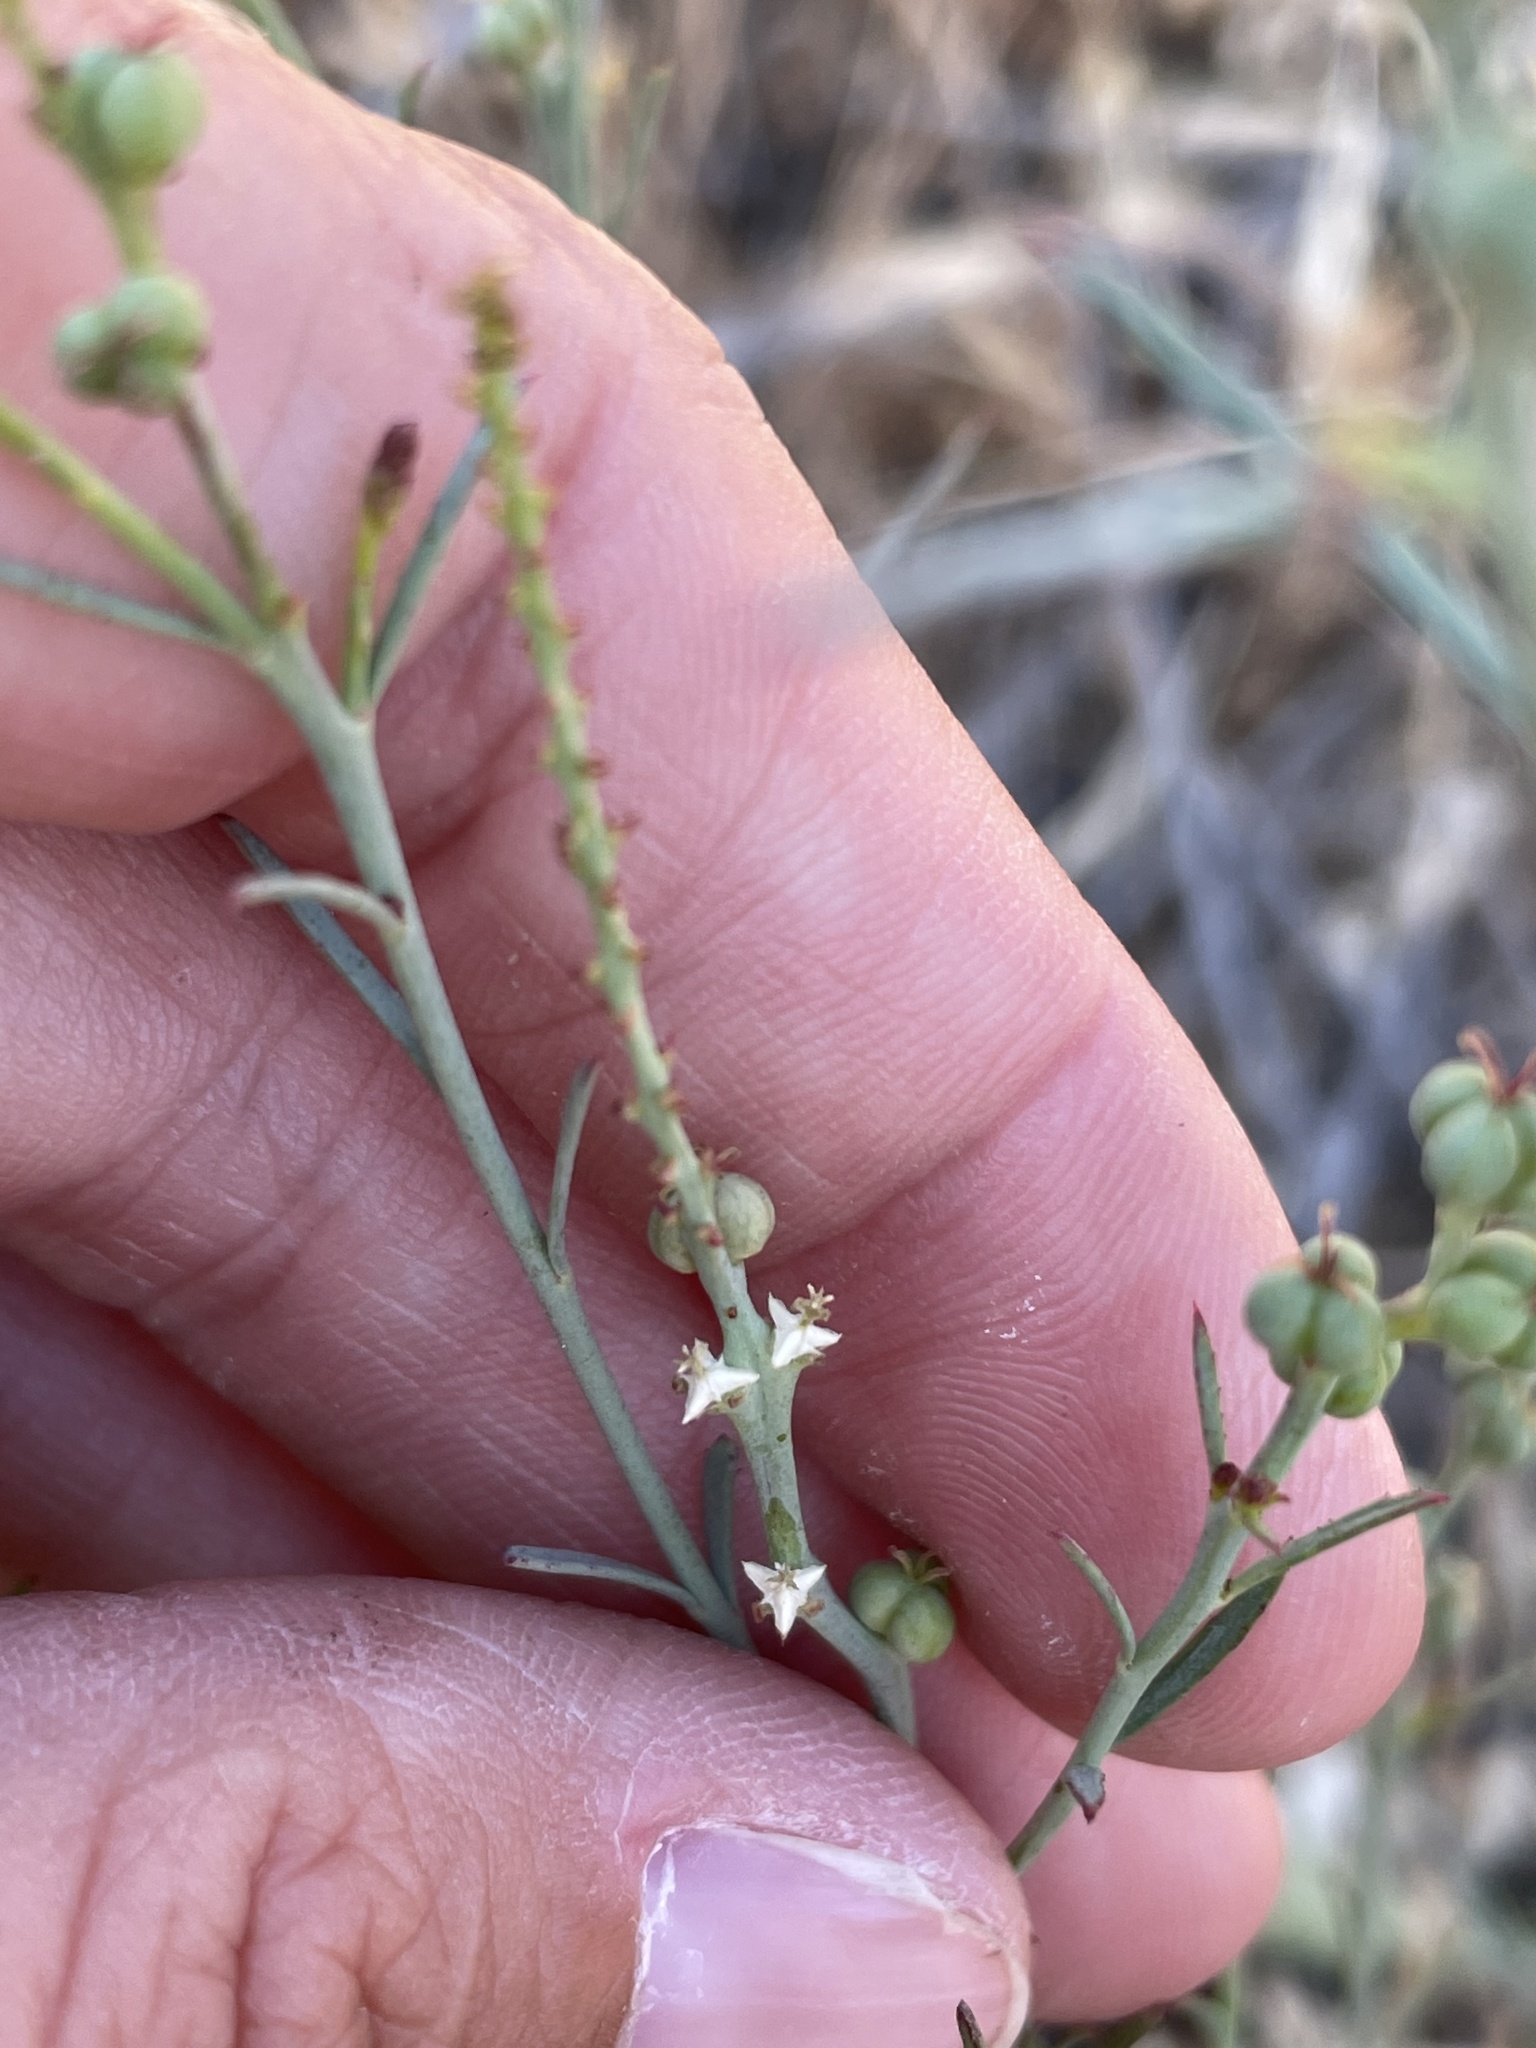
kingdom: Plantae
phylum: Tracheophyta
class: Magnoliopsida
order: Malpighiales
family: Euphorbiaceae
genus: Stillingia
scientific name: Stillingia linearifolia
